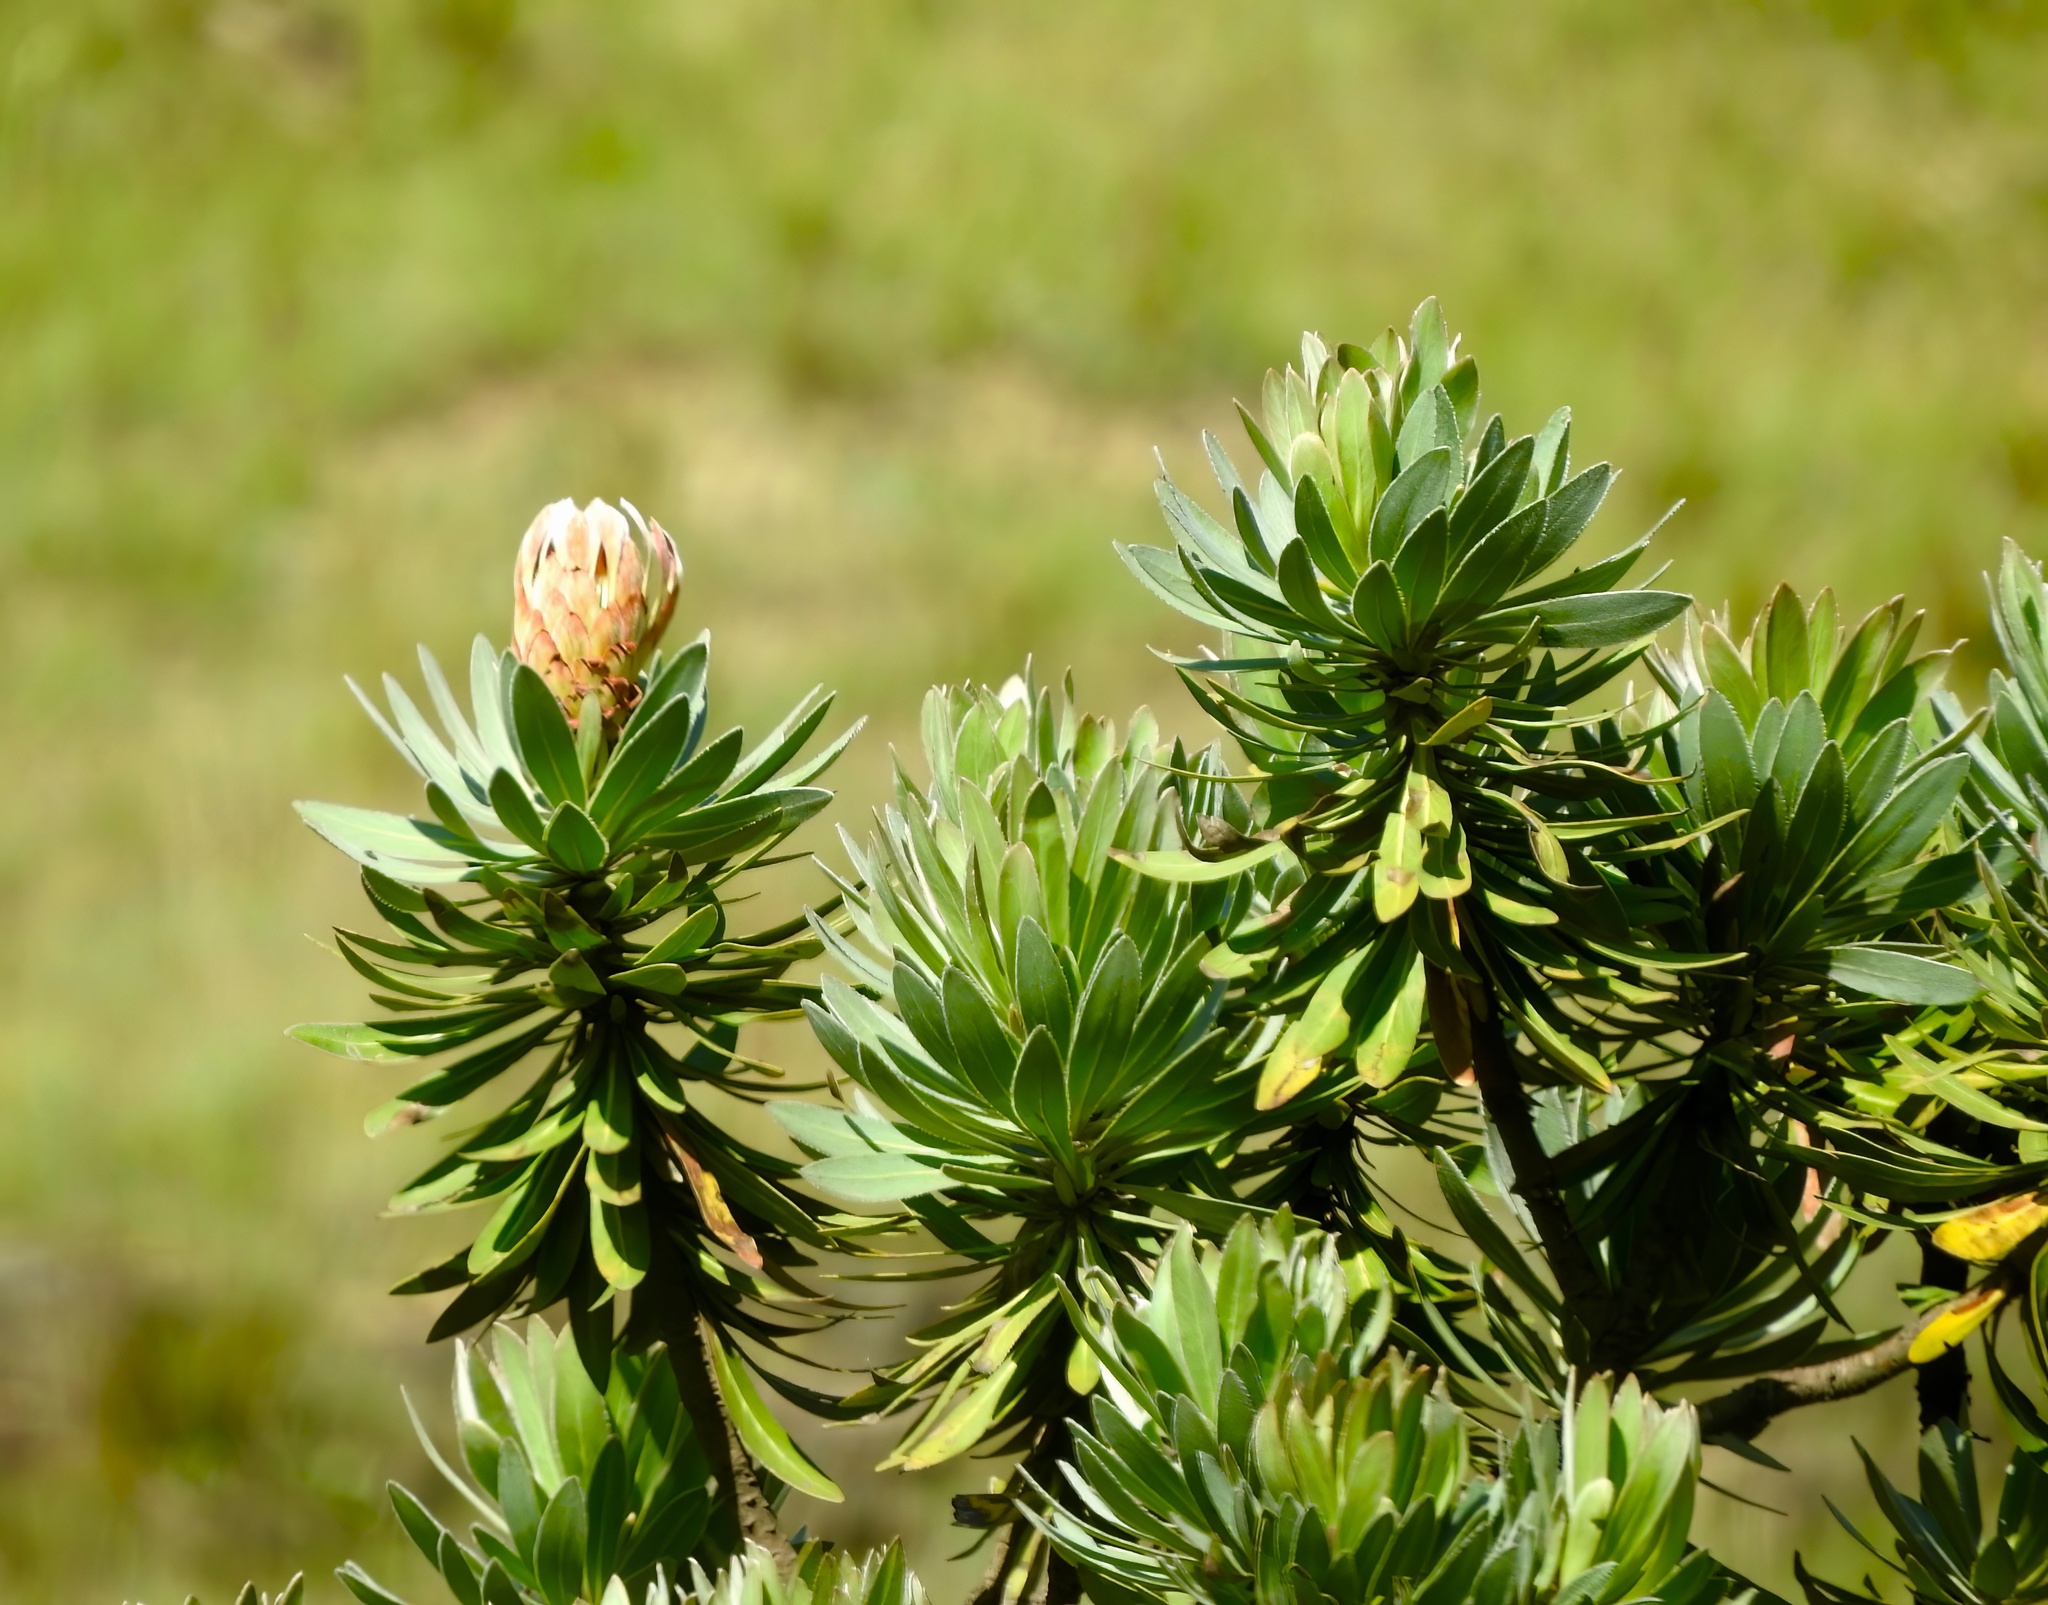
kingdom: Plantae
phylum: Tracheophyta
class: Magnoliopsida
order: Proteales
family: Proteaceae
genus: Protea
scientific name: Protea roupelliae
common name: Silver sugarbush
